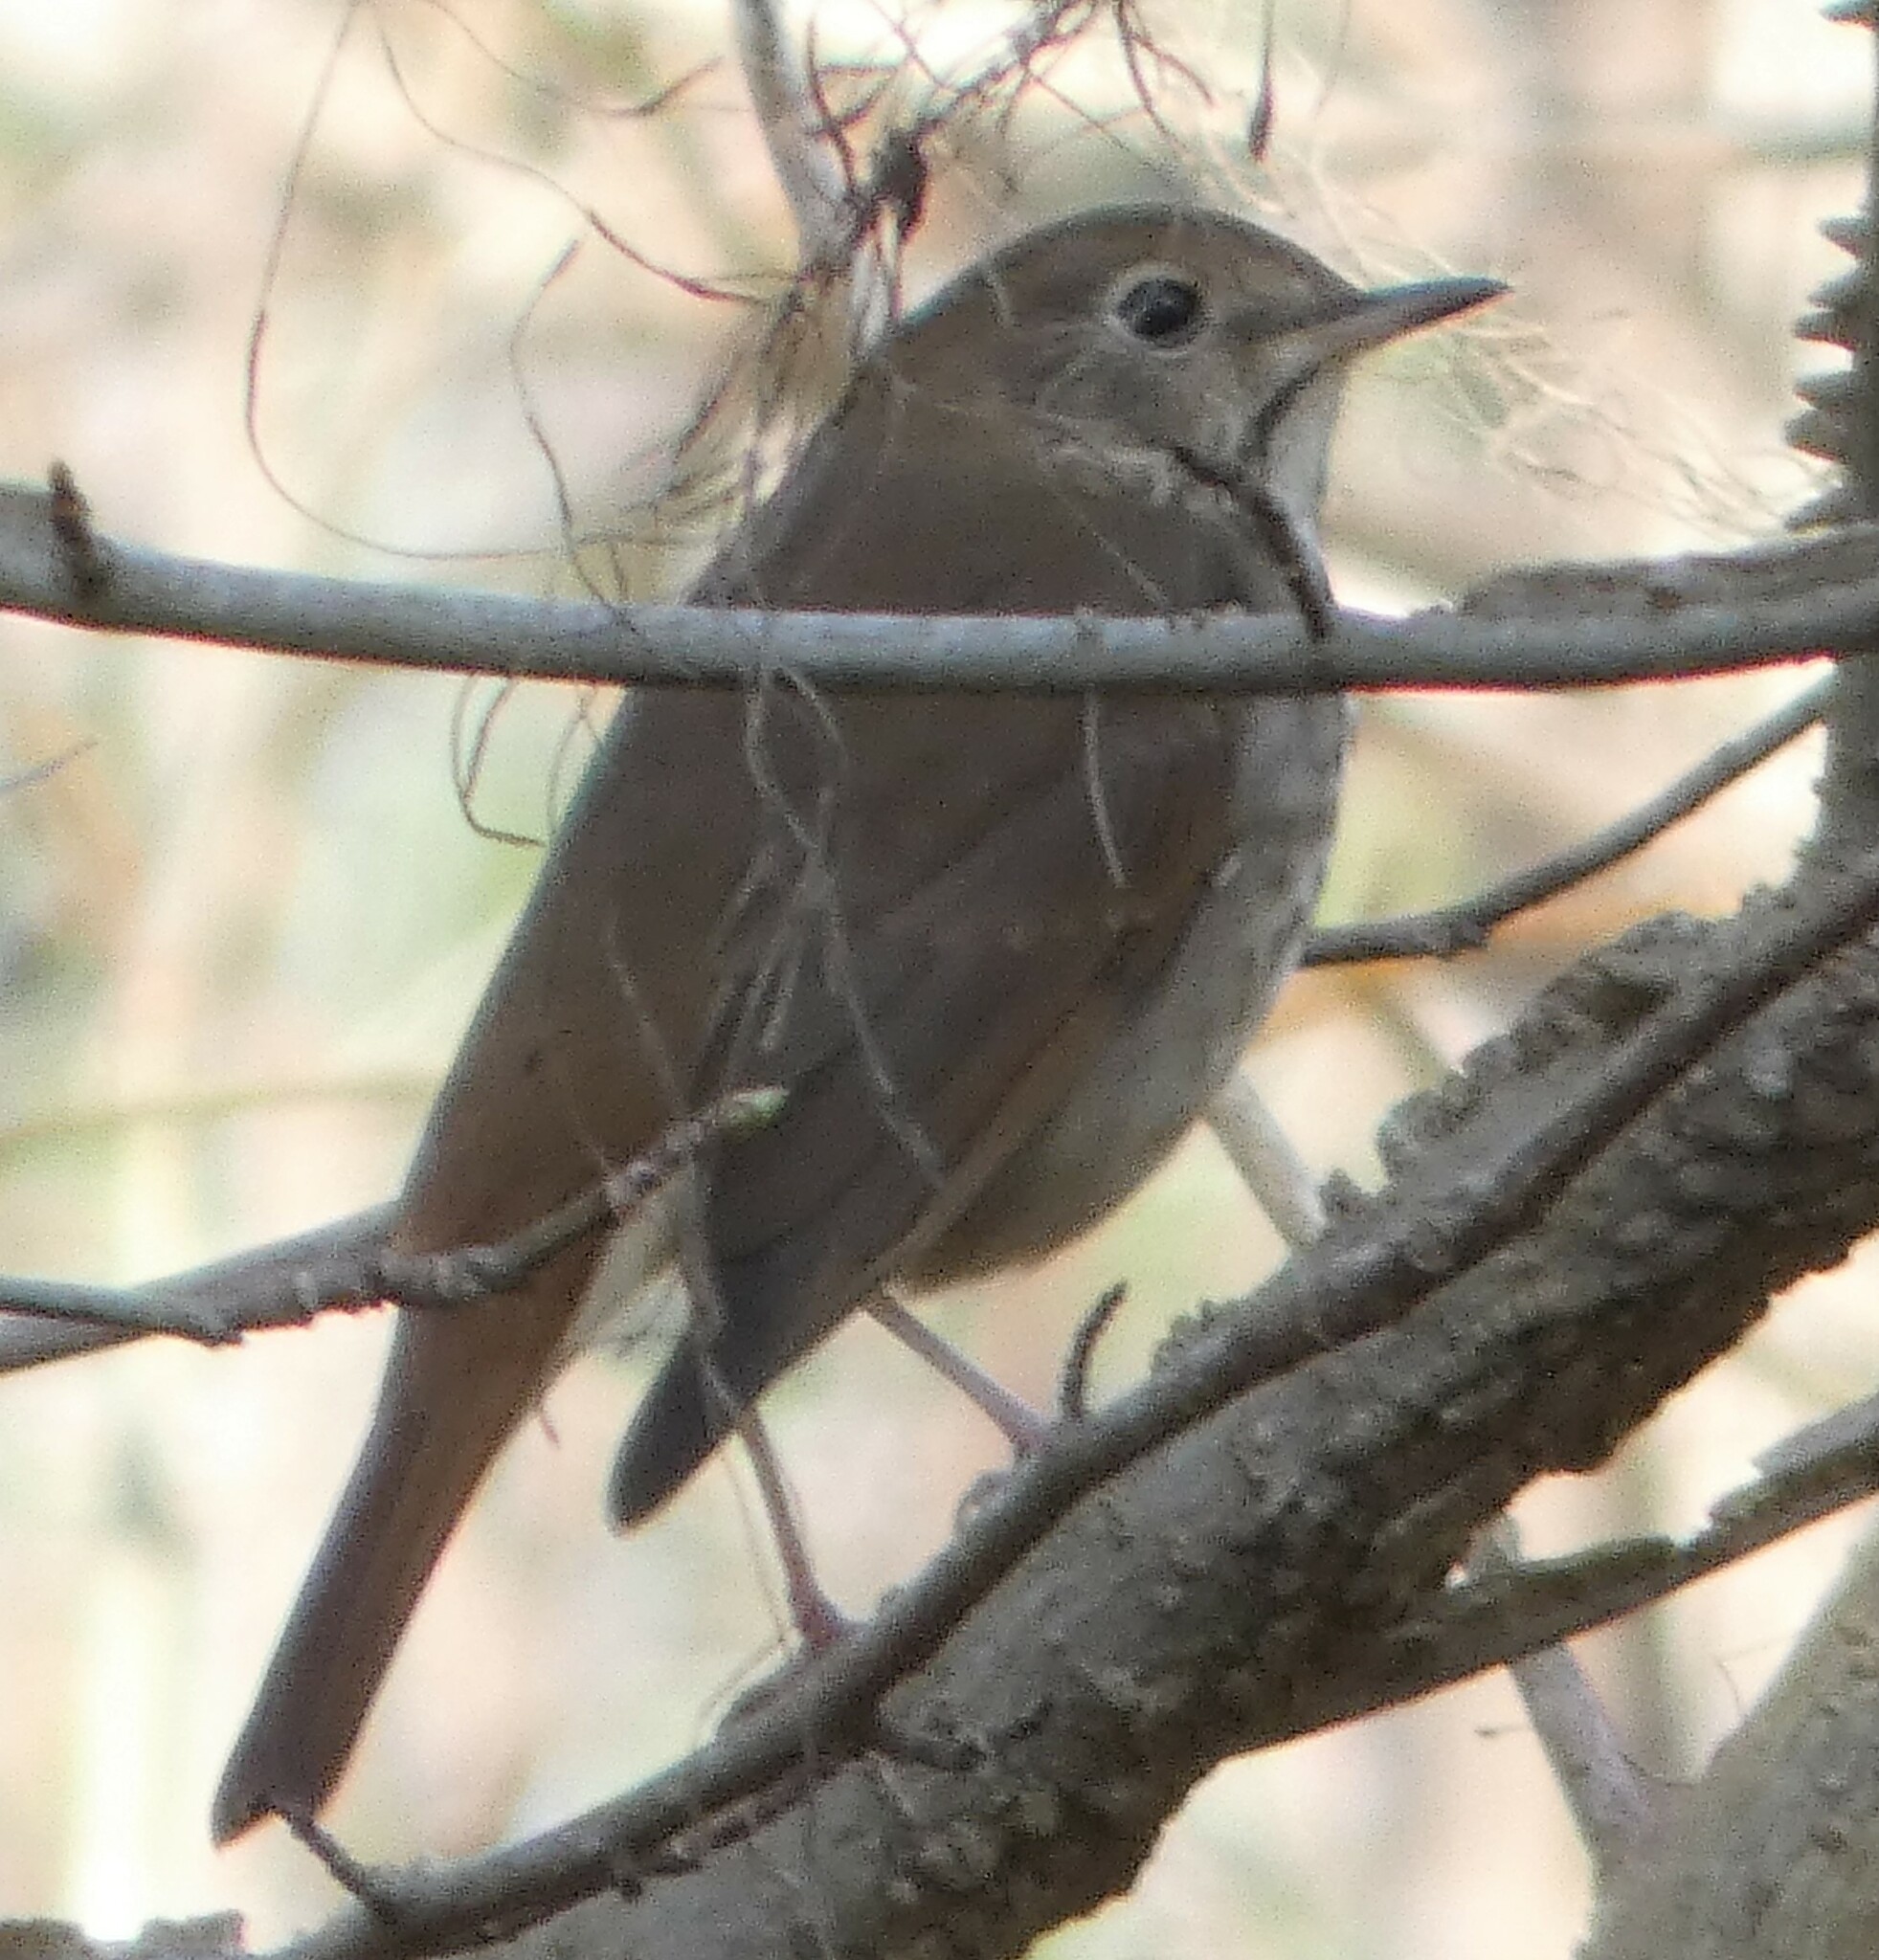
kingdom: Animalia
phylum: Chordata
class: Aves
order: Passeriformes
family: Turdidae
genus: Catharus
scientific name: Catharus guttatus
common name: Hermit thrush
